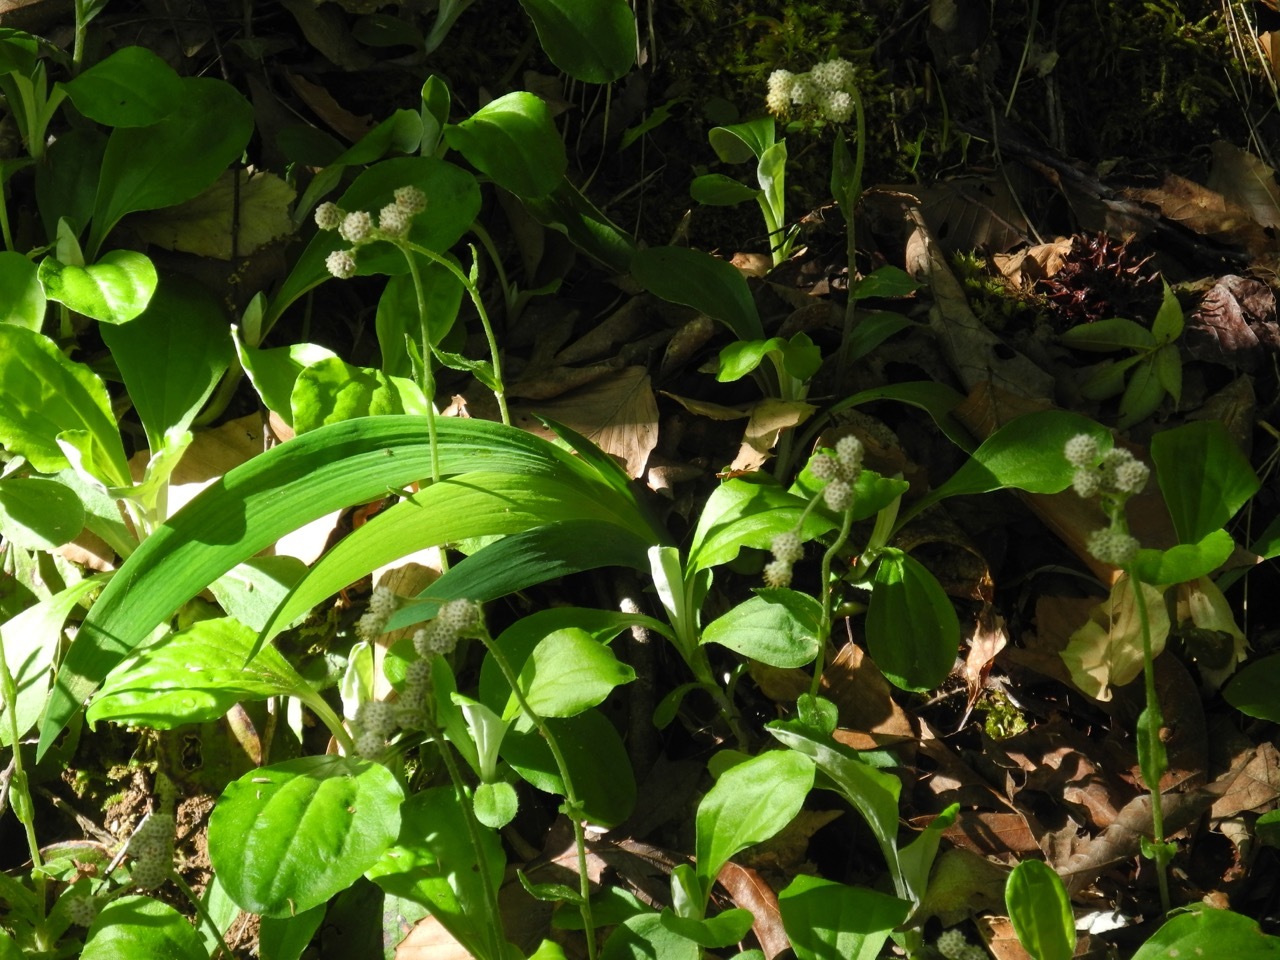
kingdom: Plantae
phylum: Tracheophyta
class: Liliopsida
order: Asparagales
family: Iridaceae
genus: Iris
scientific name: Iris cristata
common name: Crested iris
